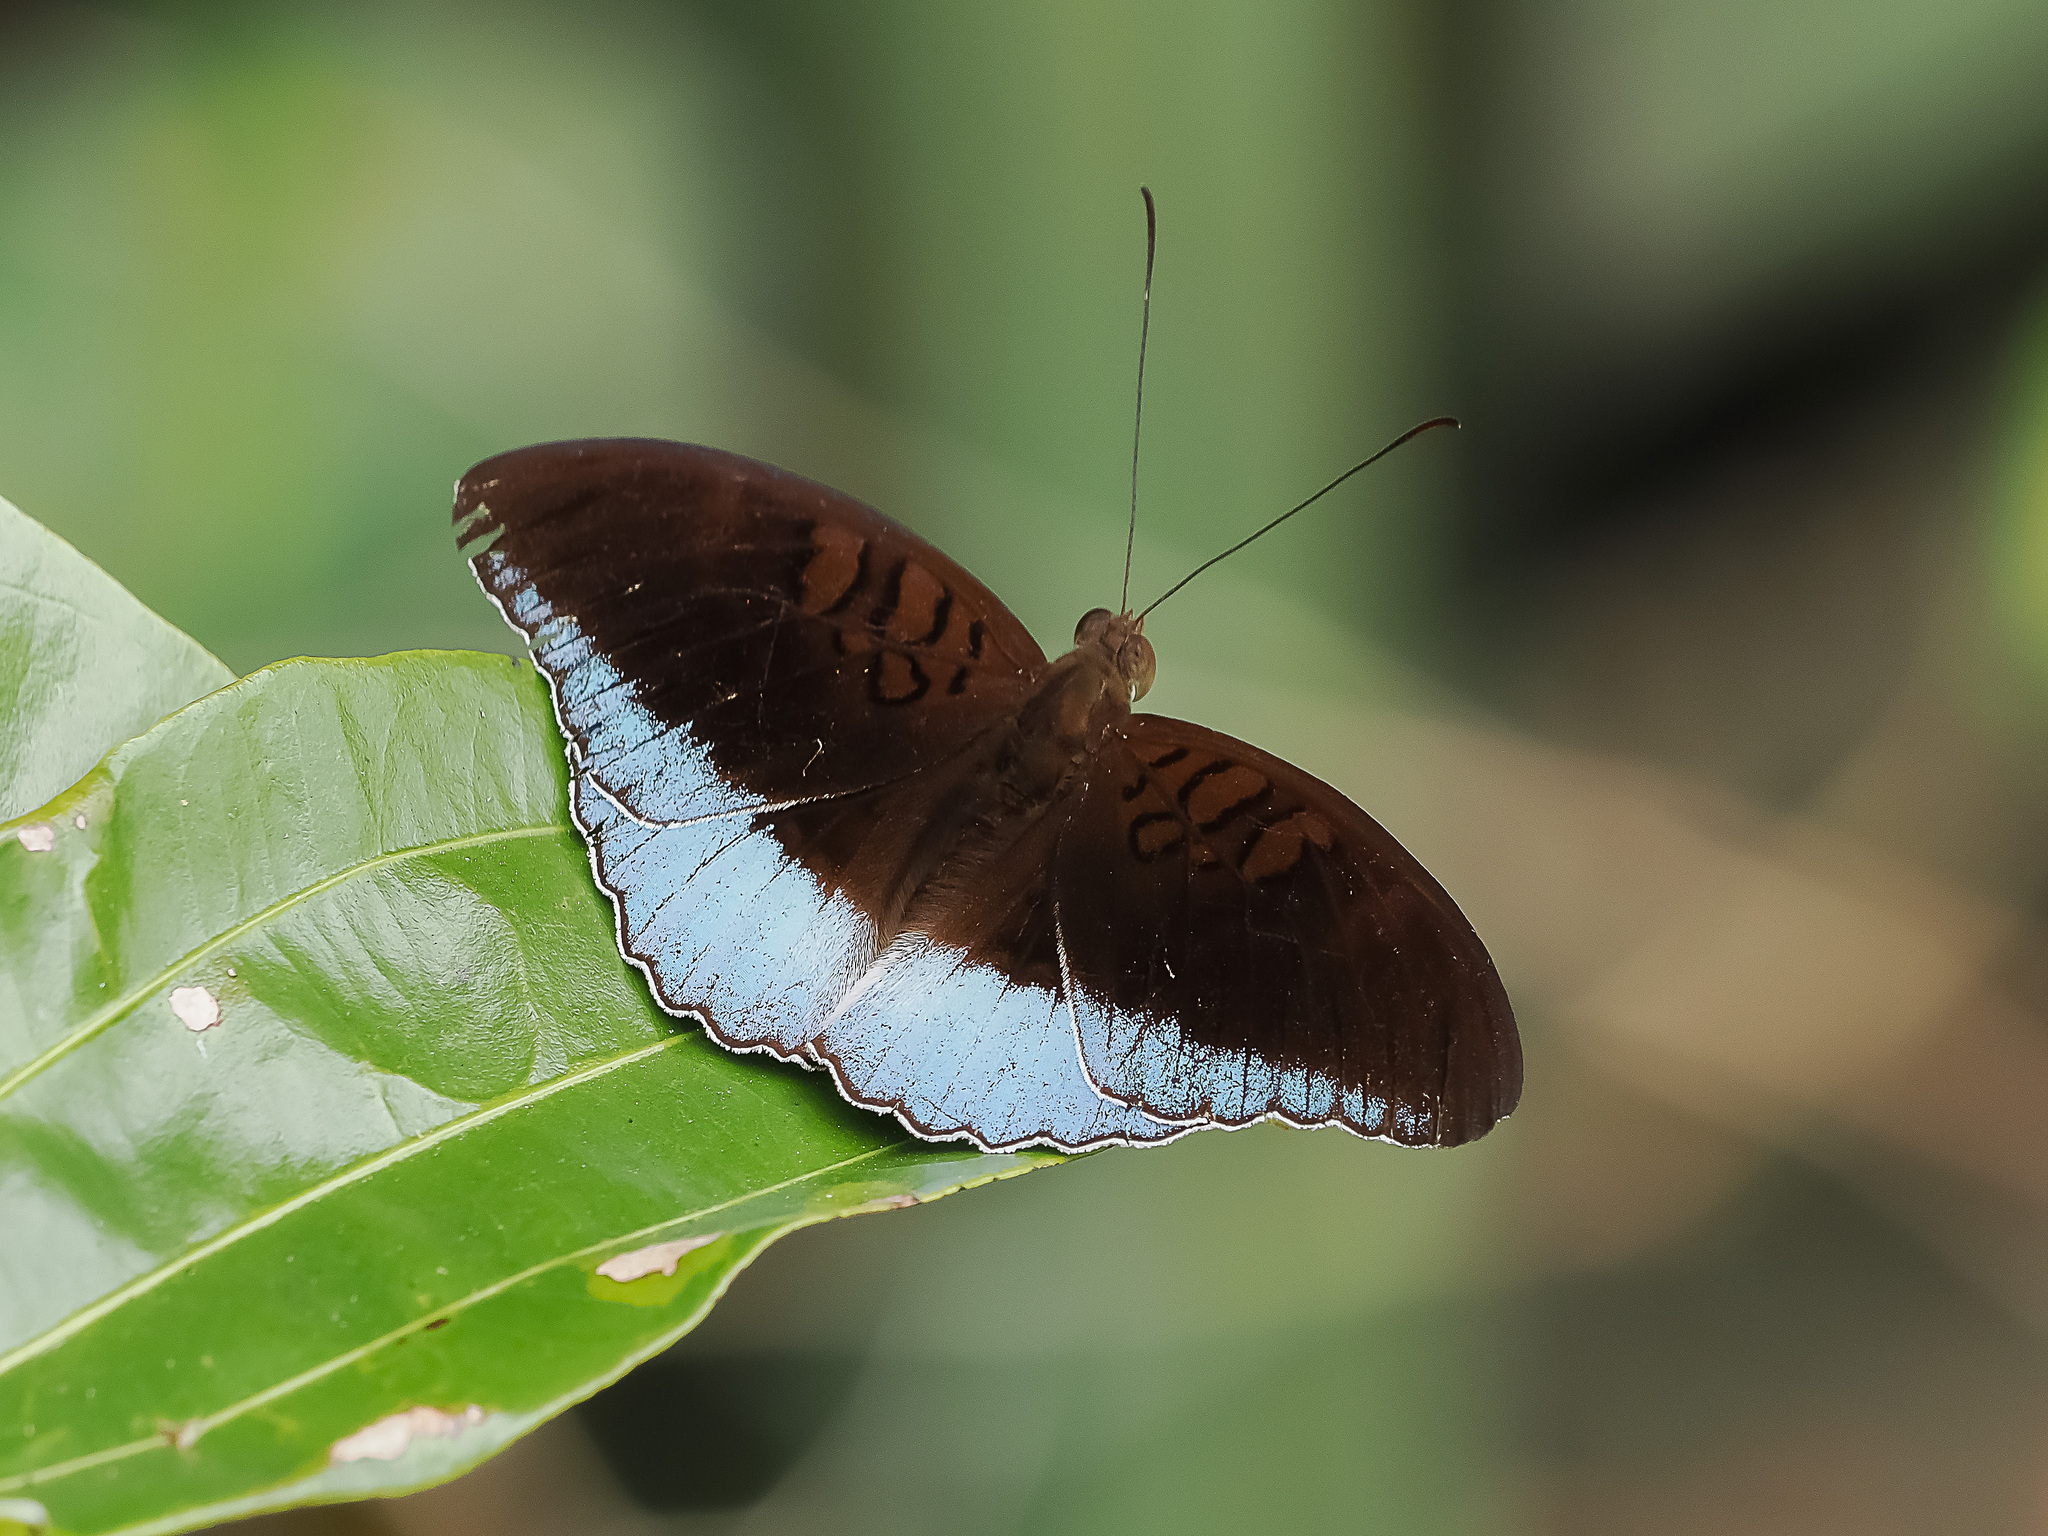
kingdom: Animalia
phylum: Arthropoda
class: Insecta
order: Lepidoptera
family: Nymphalidae
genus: Tanaecia
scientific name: Tanaecia iapis
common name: Horsfield's baron
